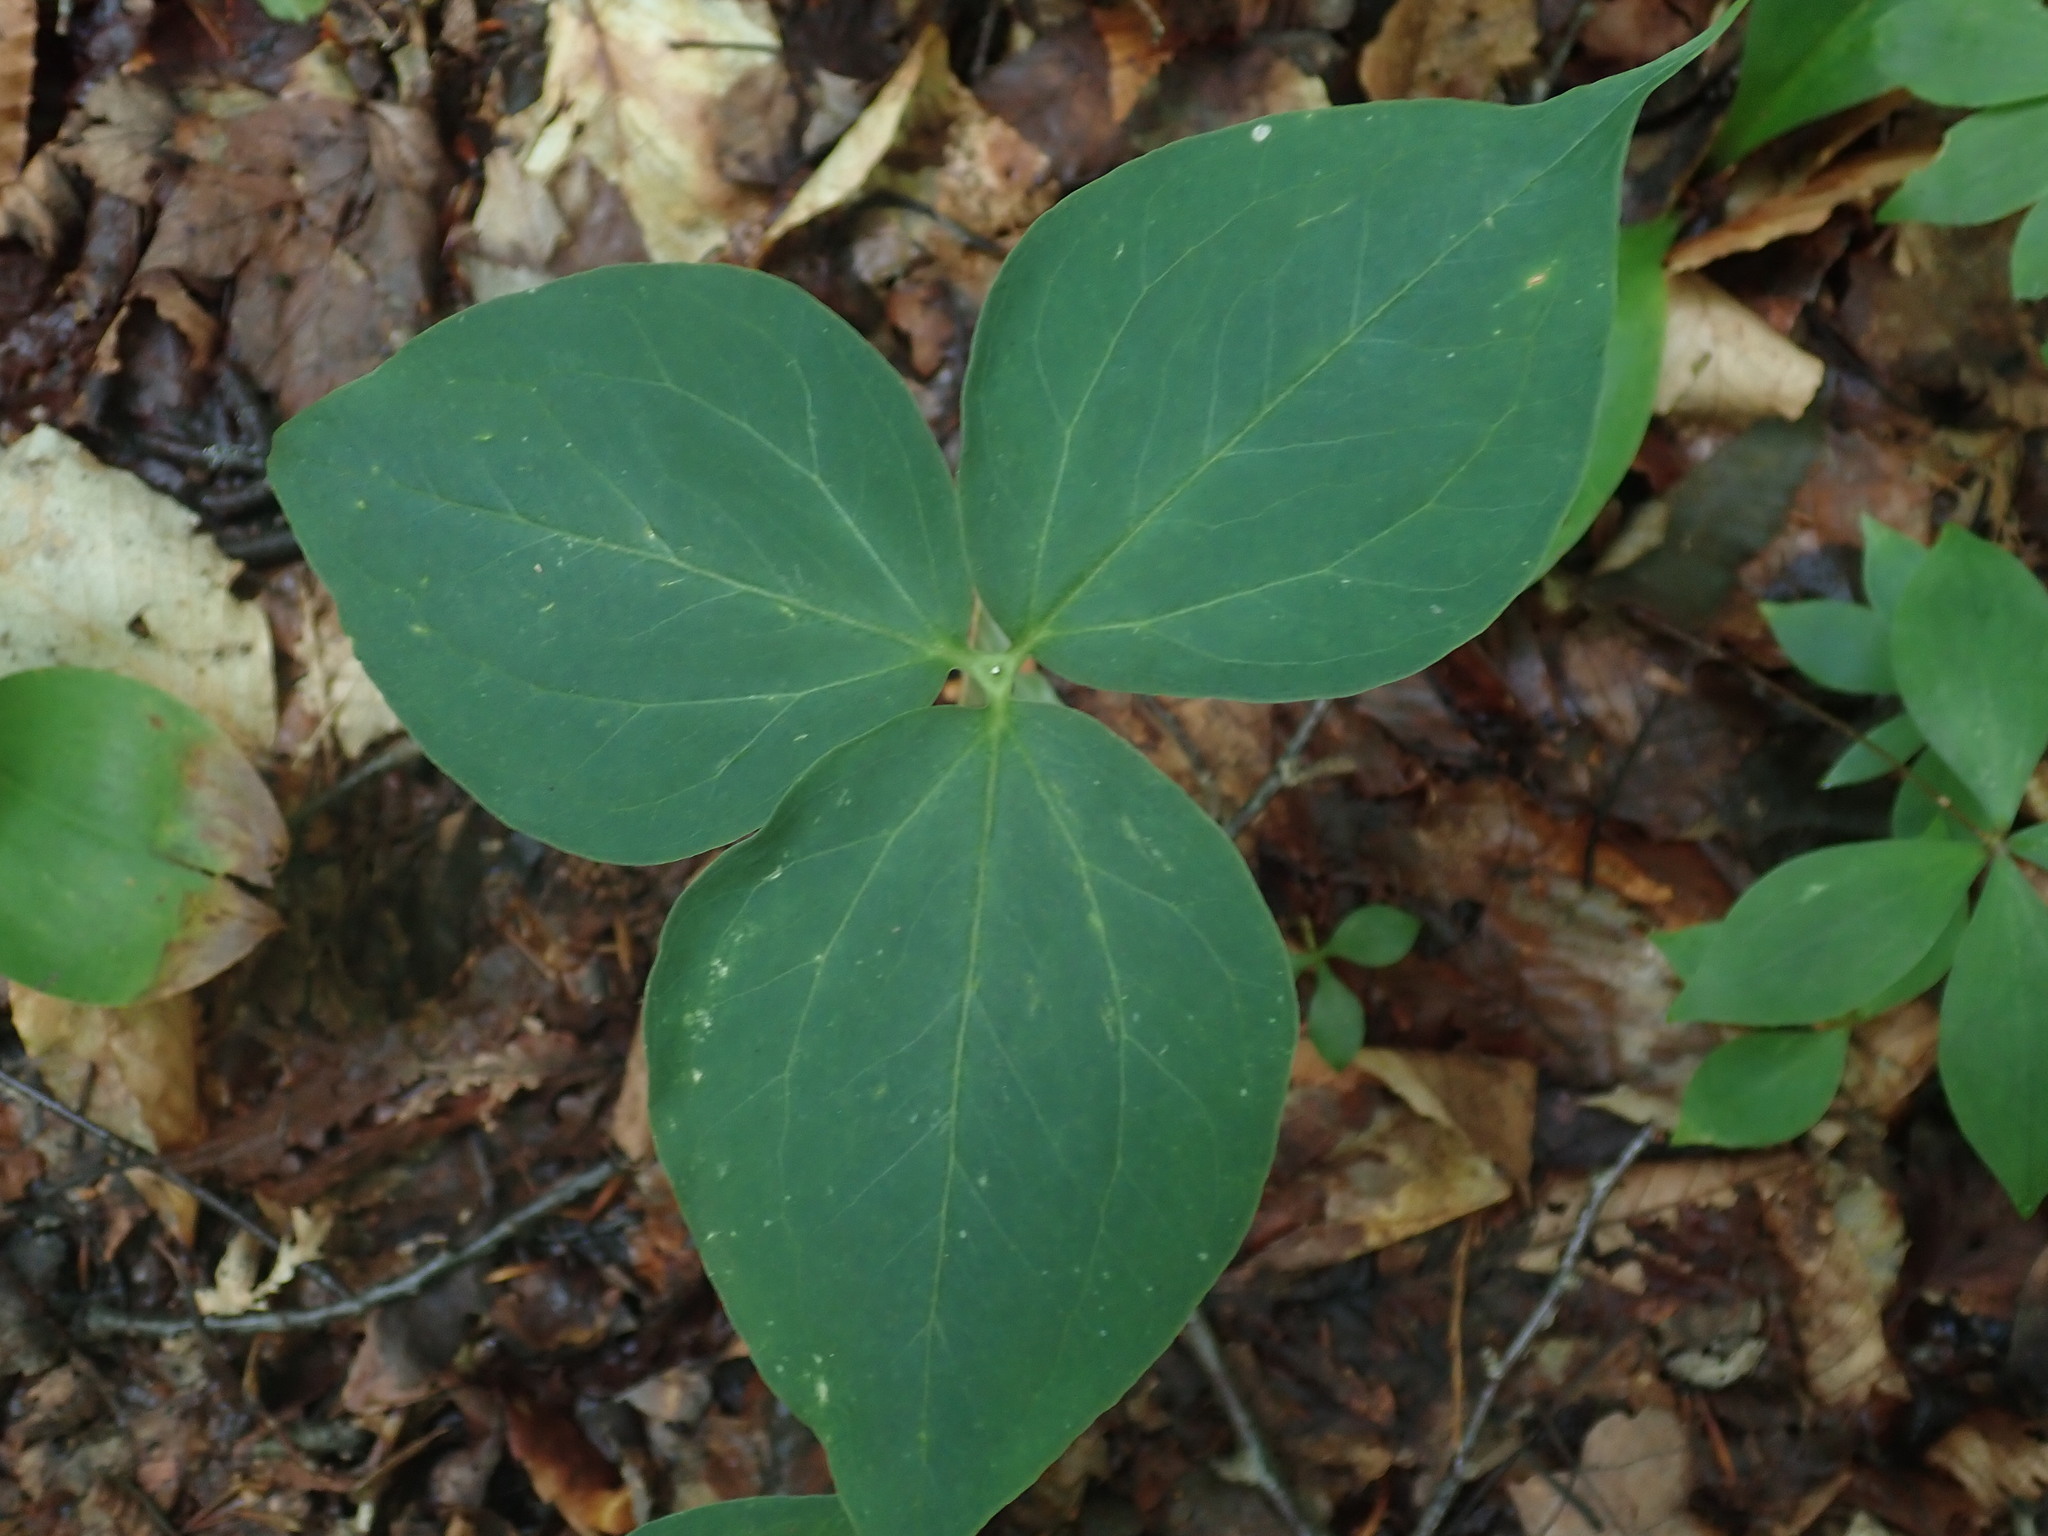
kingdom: Plantae
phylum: Tracheophyta
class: Liliopsida
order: Liliales
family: Melanthiaceae
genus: Trillium
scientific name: Trillium undulatum
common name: Paint trillium
